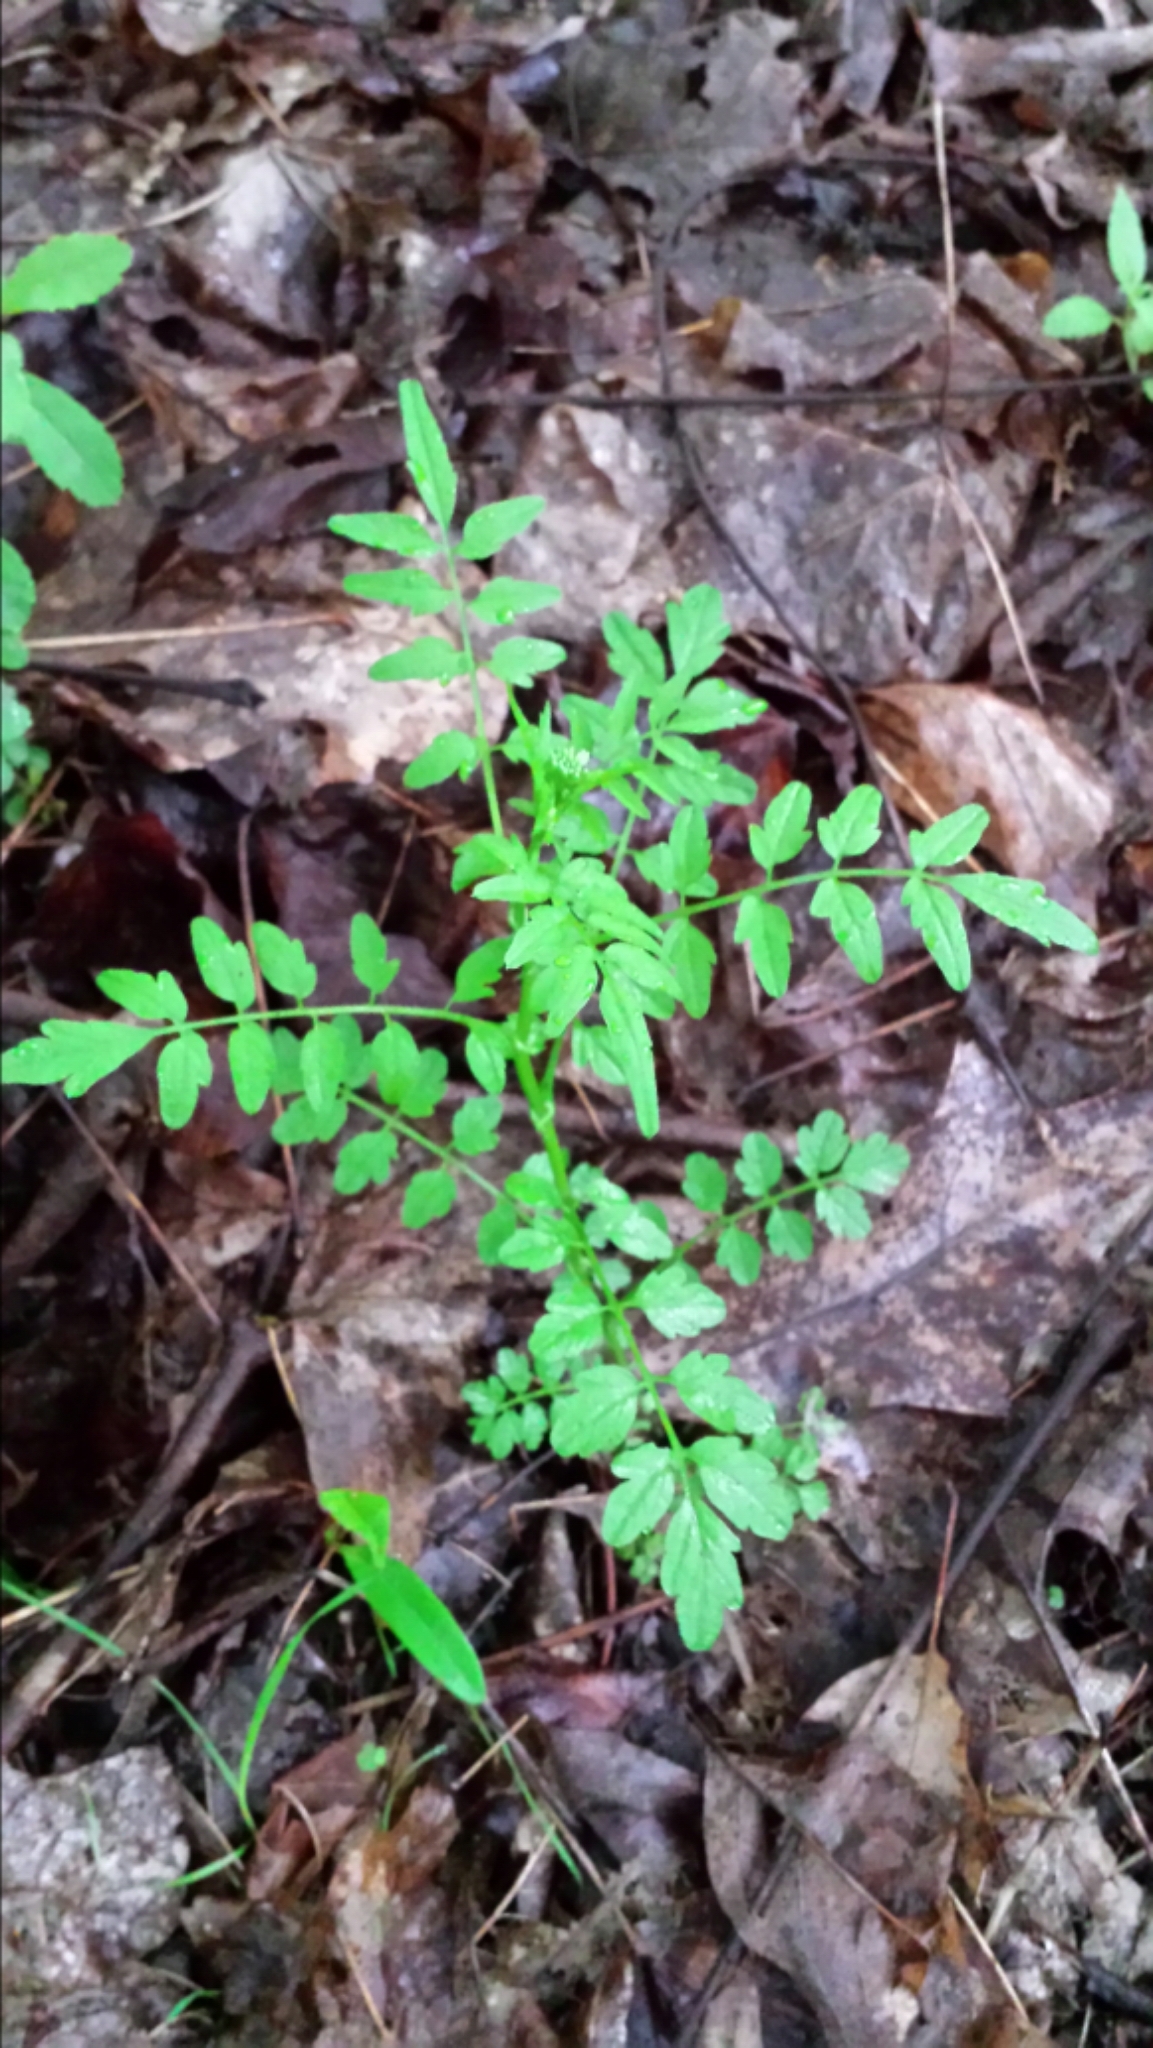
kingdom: Plantae
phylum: Tracheophyta
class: Magnoliopsida
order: Brassicales
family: Brassicaceae
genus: Cardamine
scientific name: Cardamine impatiens
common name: Narrow-leaved bitter-cress
